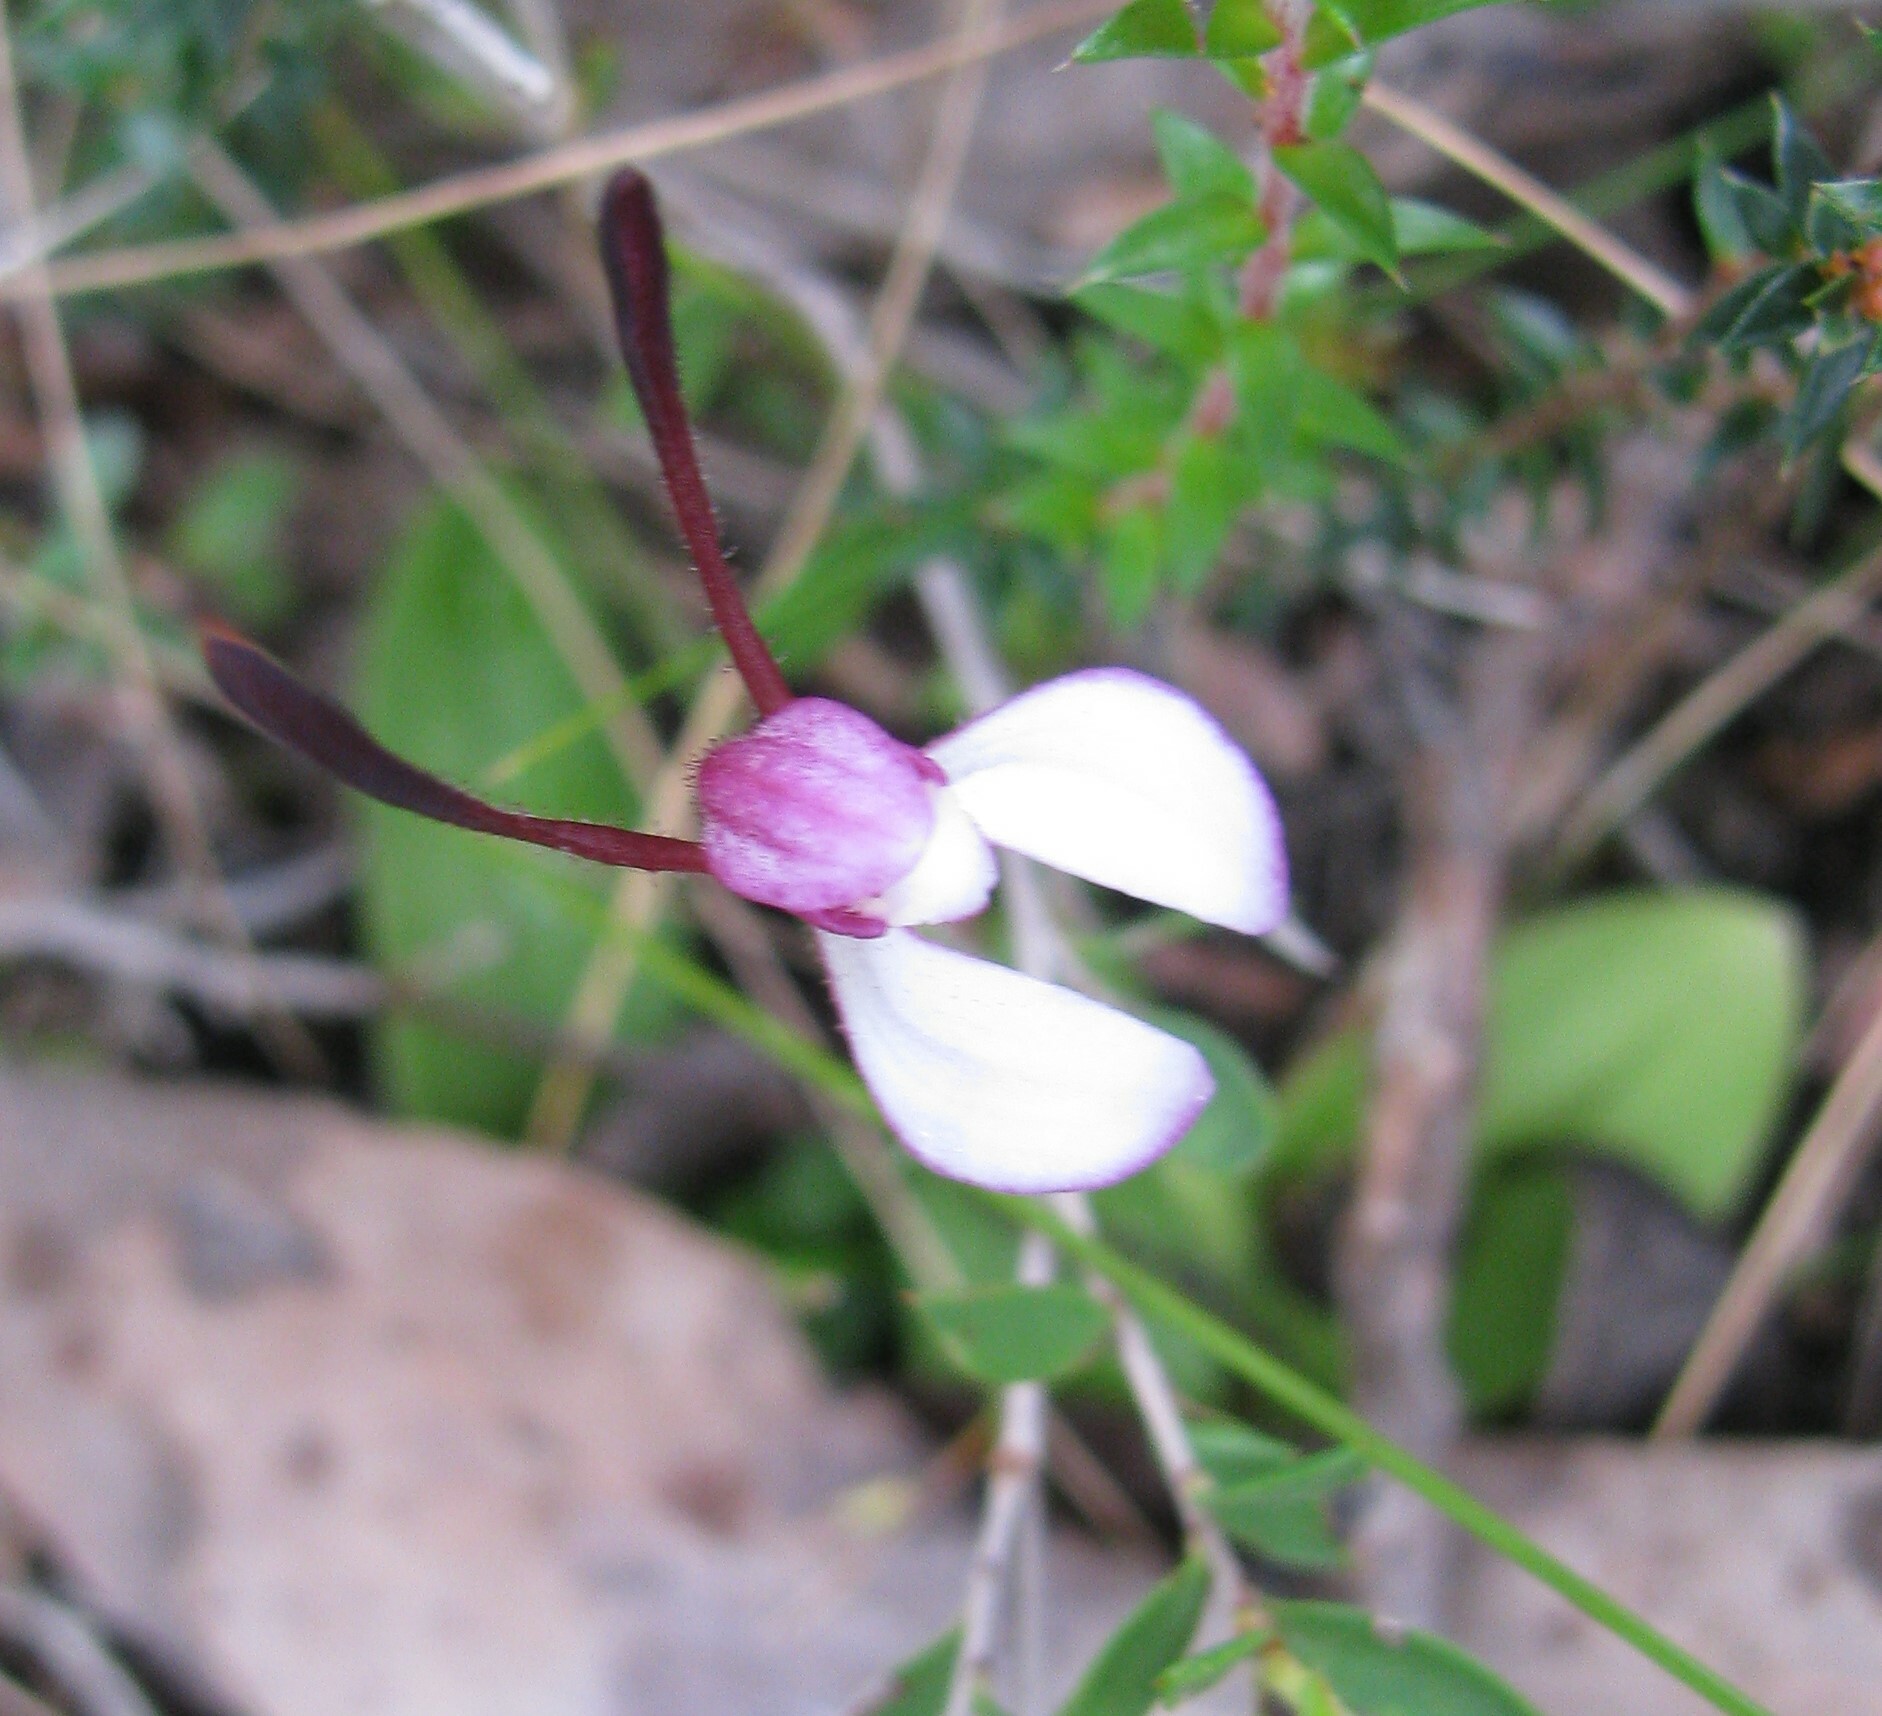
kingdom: Plantae
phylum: Tracheophyta
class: Liliopsida
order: Asparagales
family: Orchidaceae
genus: Leptoceras
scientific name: Leptoceras menziesii
